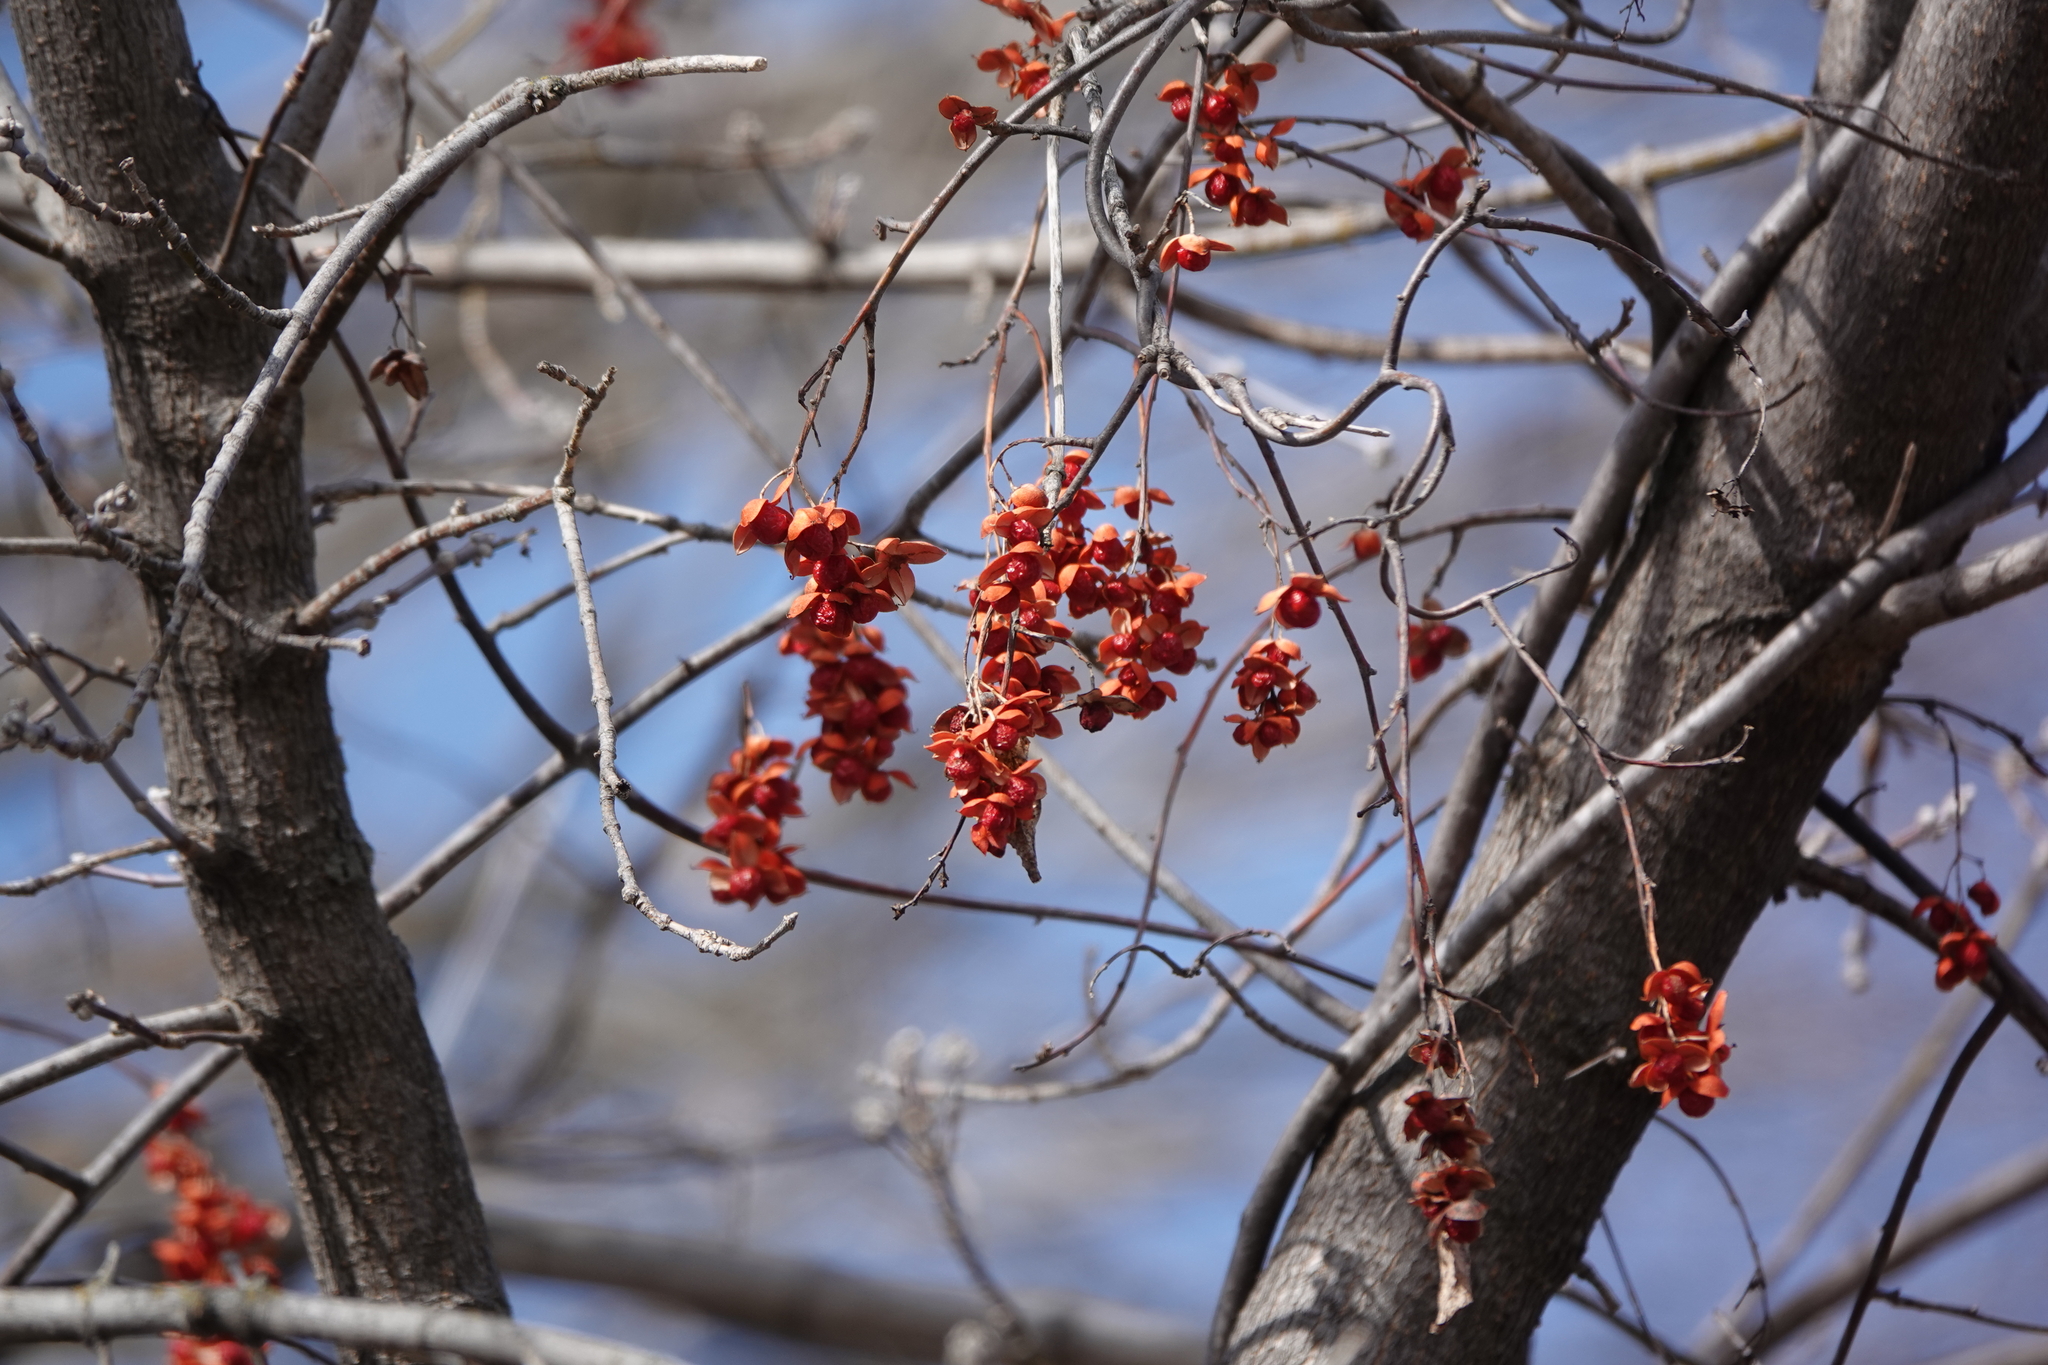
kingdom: Plantae
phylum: Tracheophyta
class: Magnoliopsida
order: Celastrales
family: Celastraceae
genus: Celastrus
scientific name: Celastrus scandens
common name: American bittersweet
